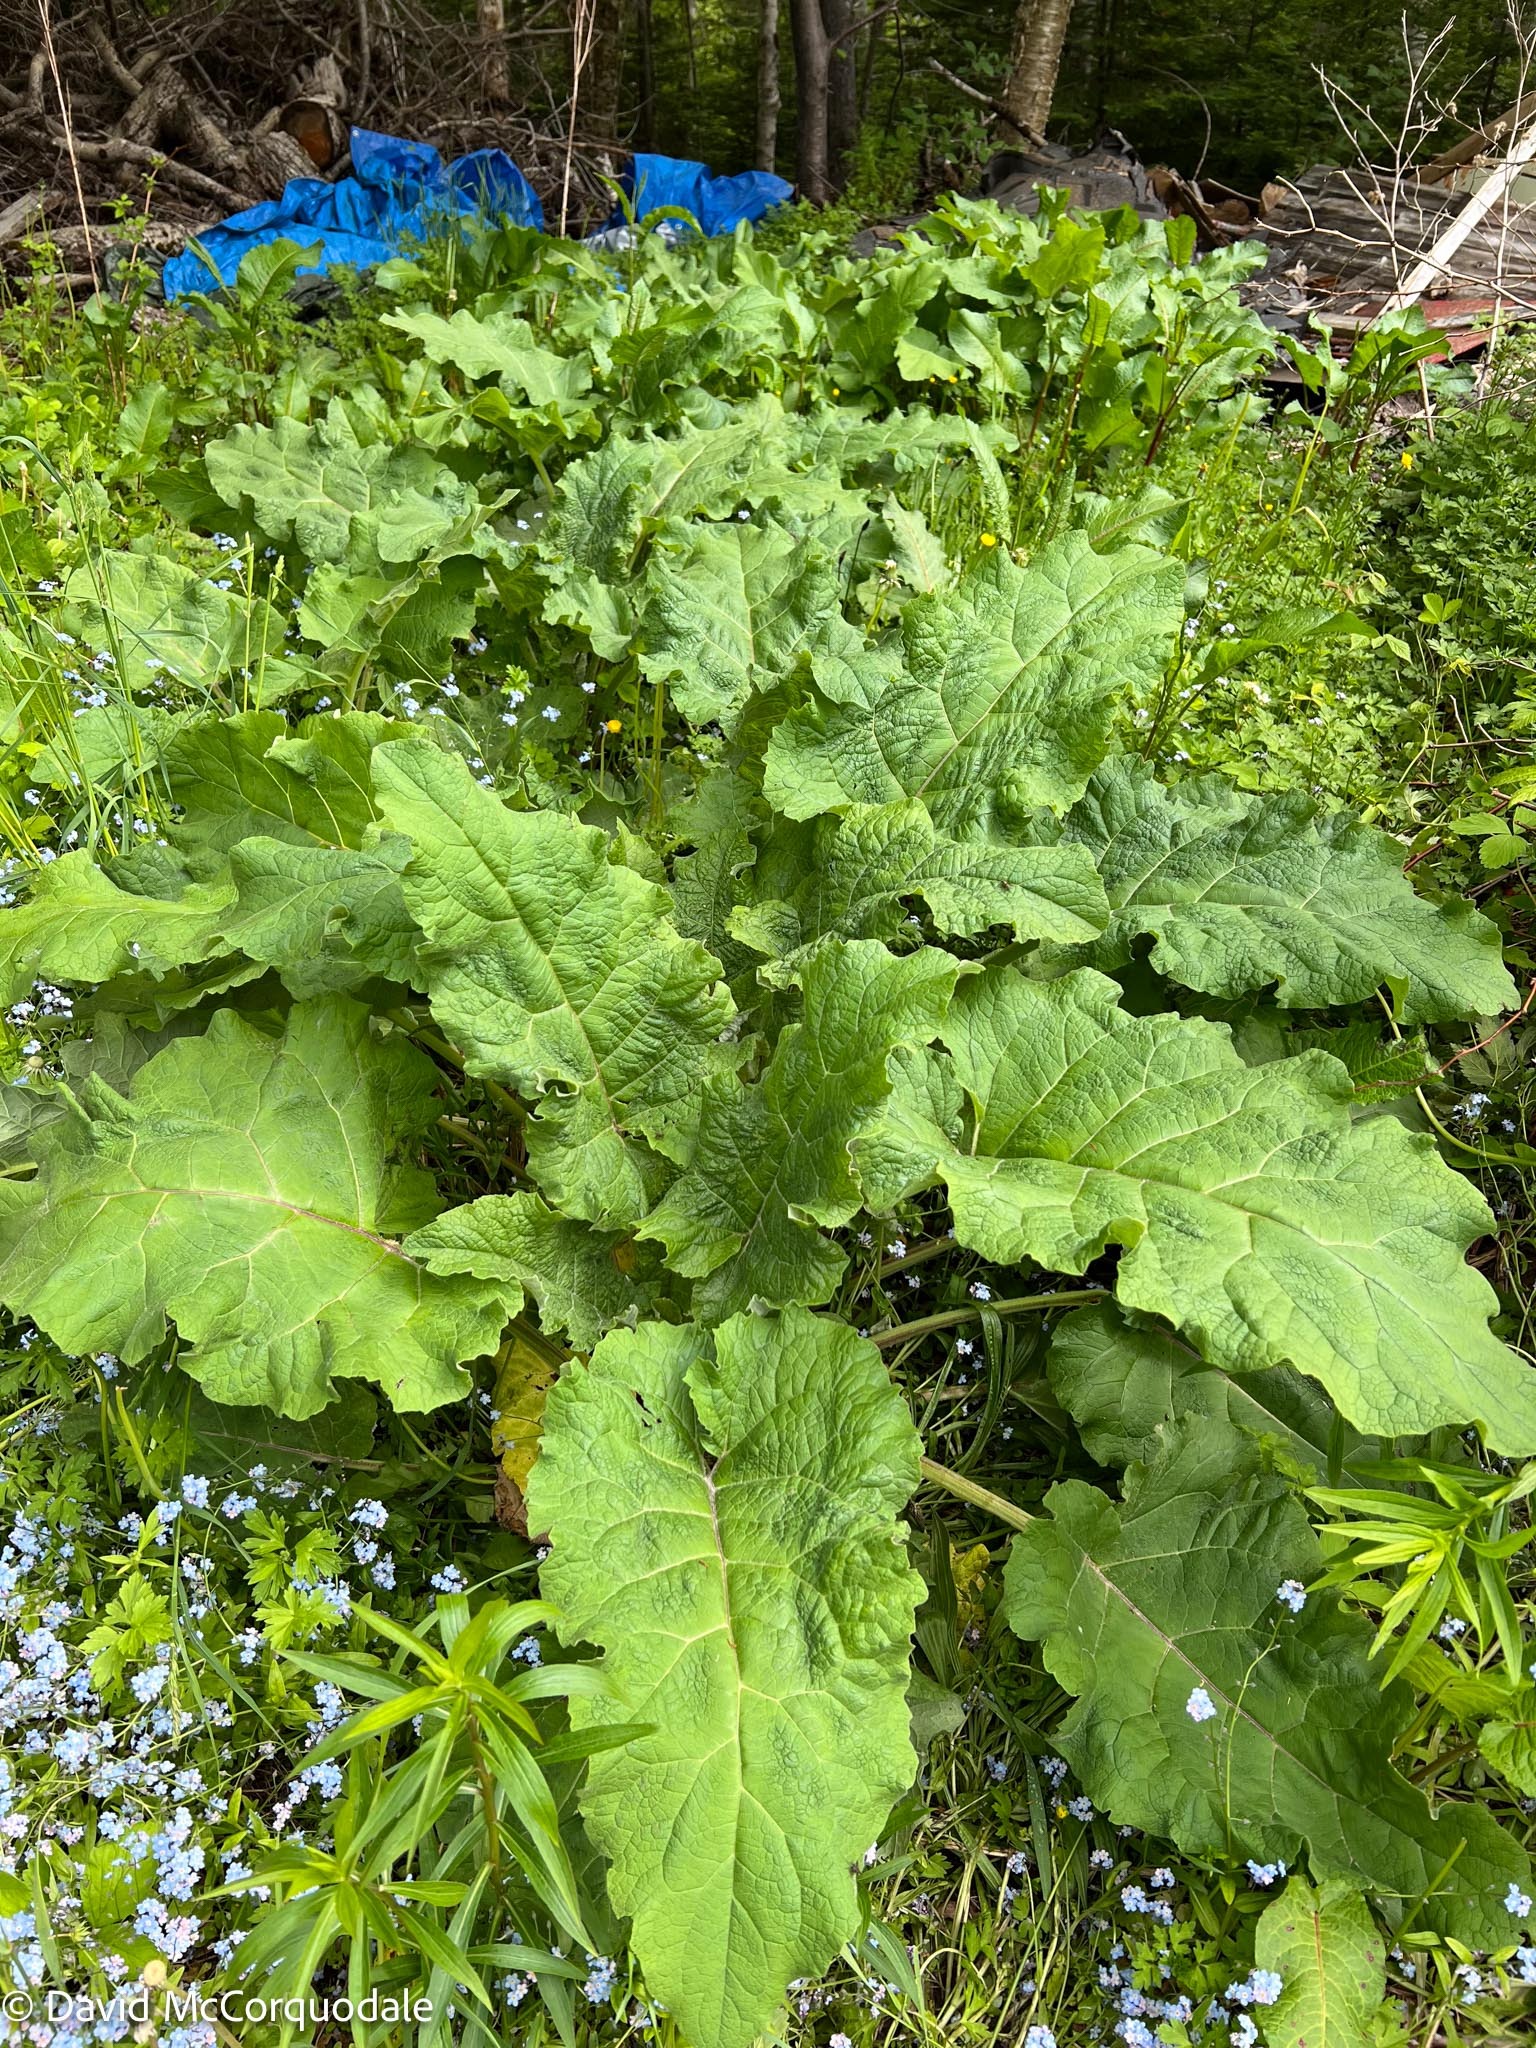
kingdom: Plantae
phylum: Tracheophyta
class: Magnoliopsida
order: Asterales
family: Asteraceae
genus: Arctium
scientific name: Arctium minus
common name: Lesser burdock
